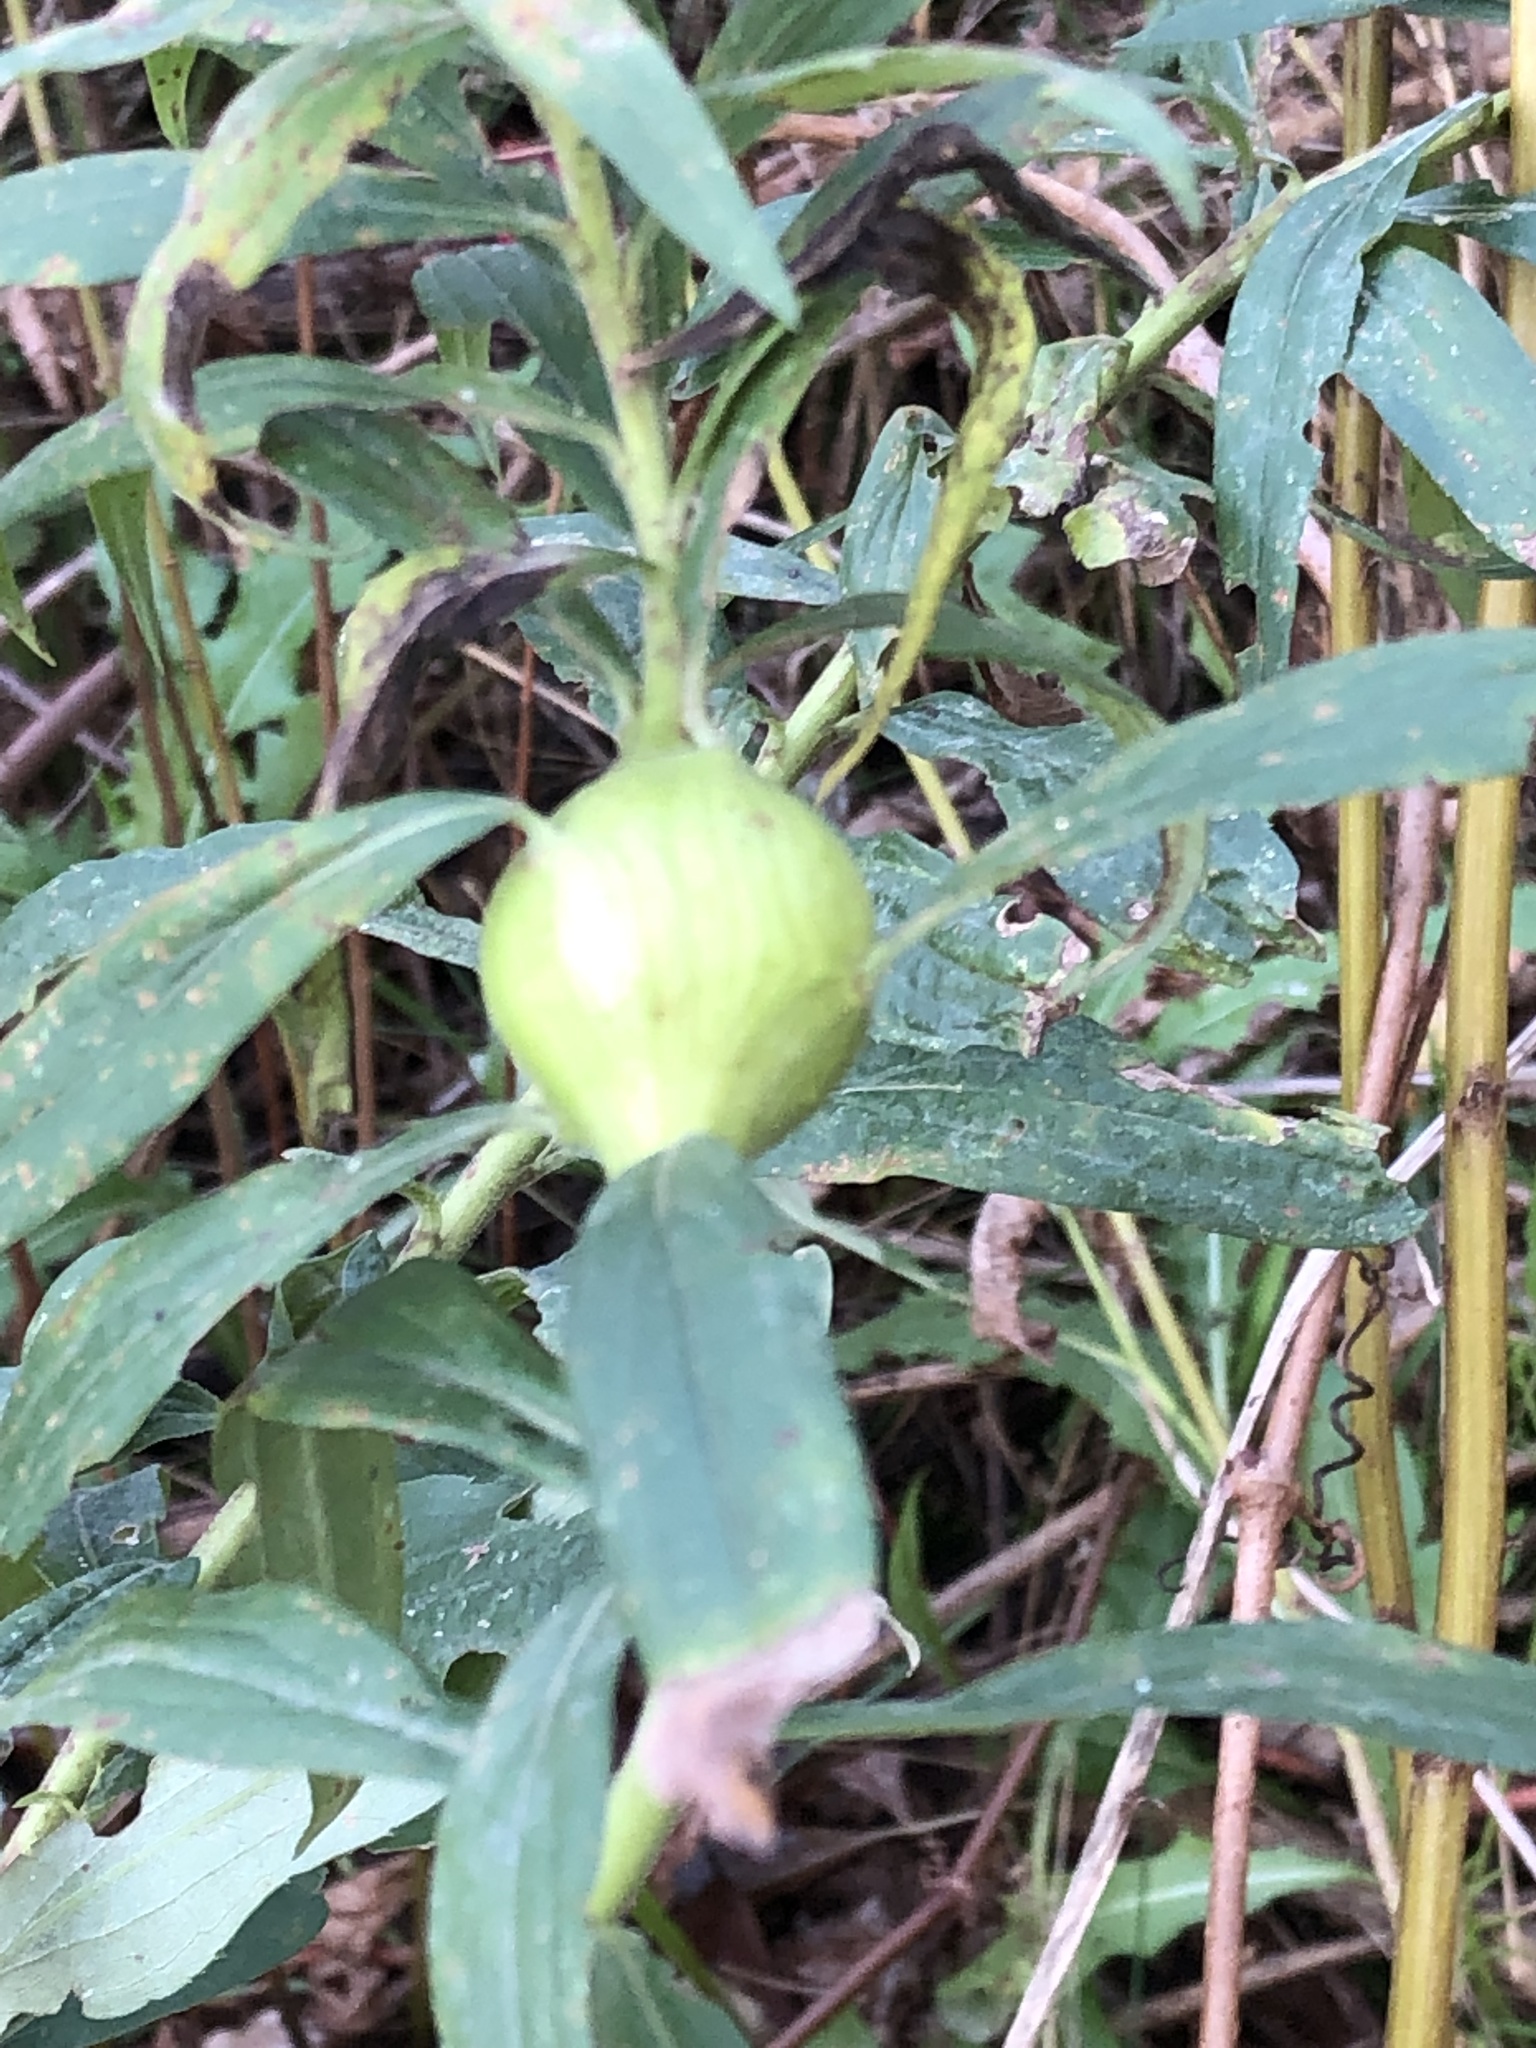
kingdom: Animalia
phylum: Arthropoda
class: Insecta
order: Diptera
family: Tephritidae
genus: Eurosta
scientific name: Eurosta solidaginis
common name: Goldenrod gall fly
